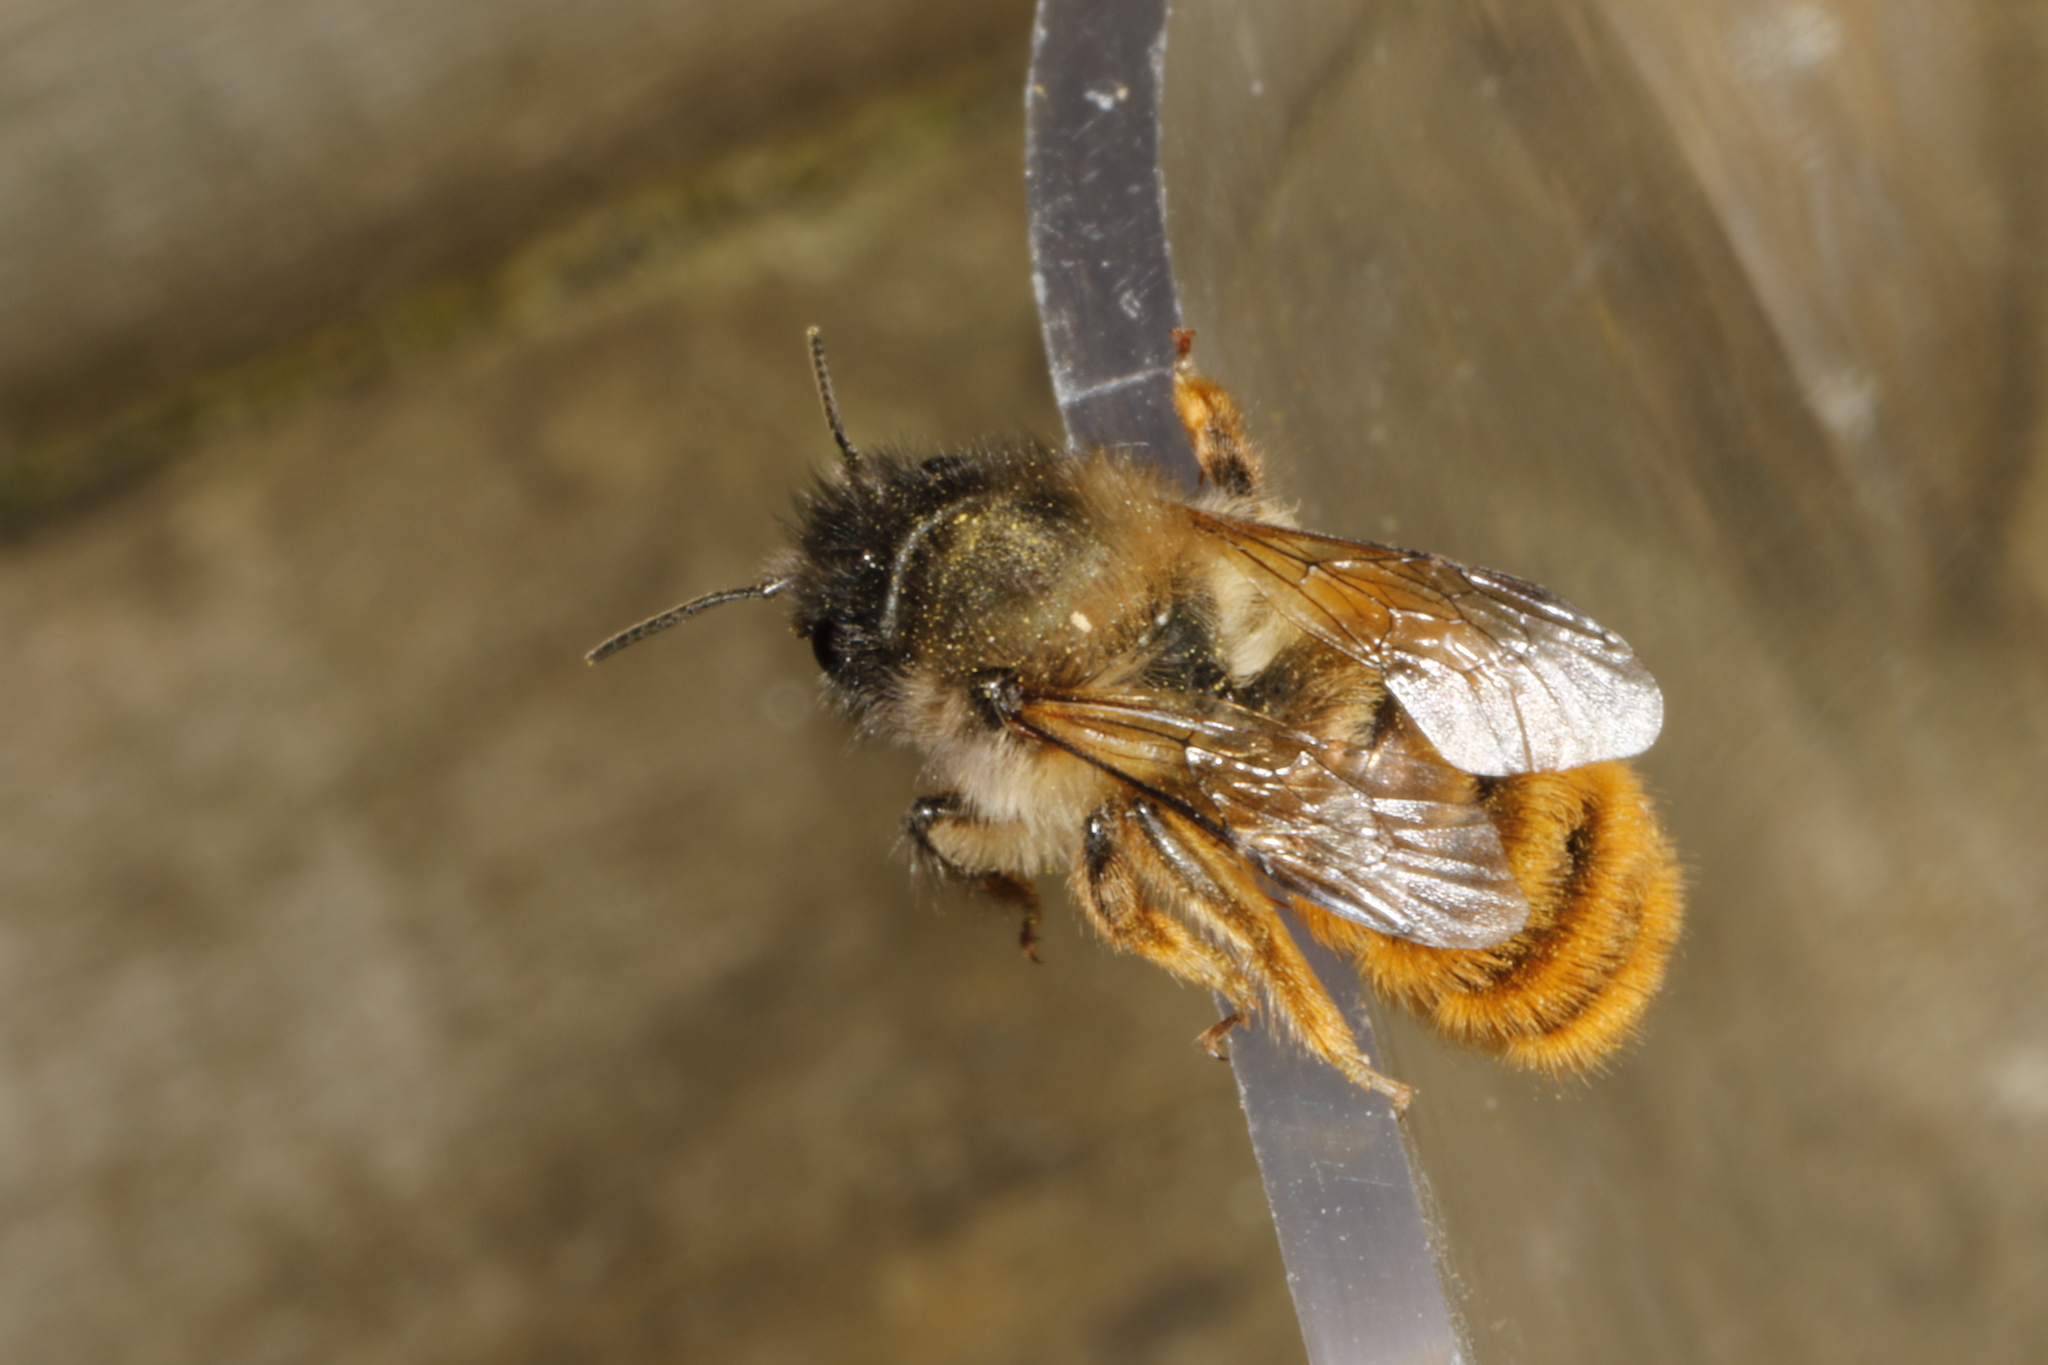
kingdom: Animalia
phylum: Arthropoda
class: Insecta
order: Hymenoptera
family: Megachilidae
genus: Osmia
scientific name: Osmia bicornis
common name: Red mason bee
